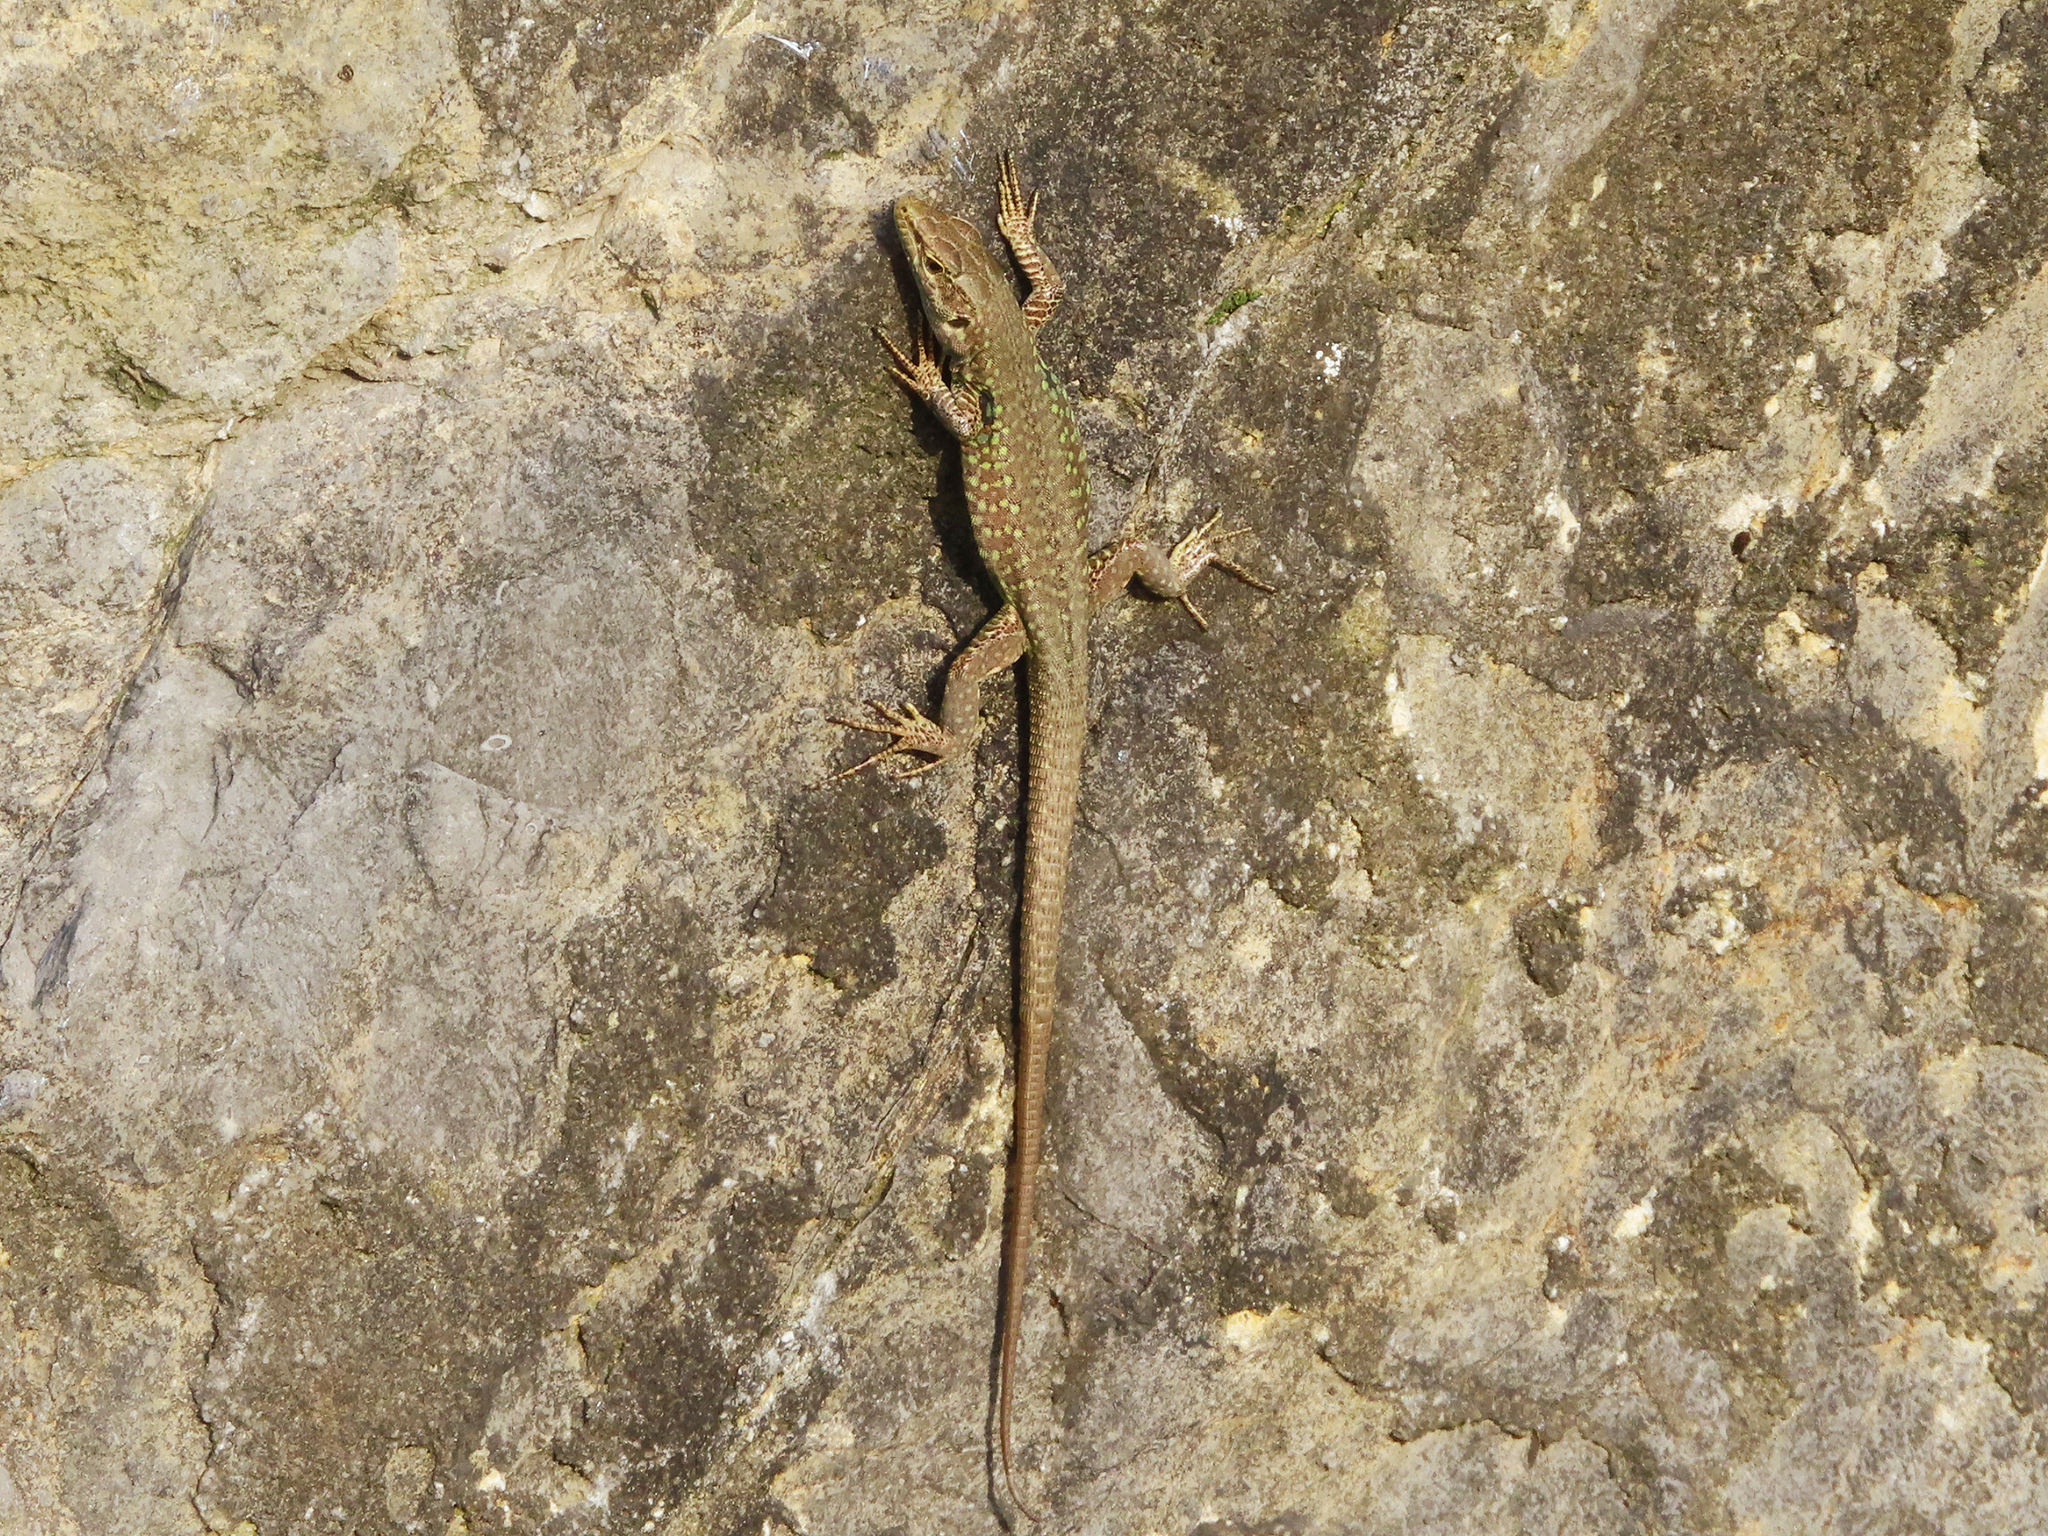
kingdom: Animalia
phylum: Chordata
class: Squamata
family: Lacertidae
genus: Podarcis
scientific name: Podarcis siculus
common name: Italian wall lizard
